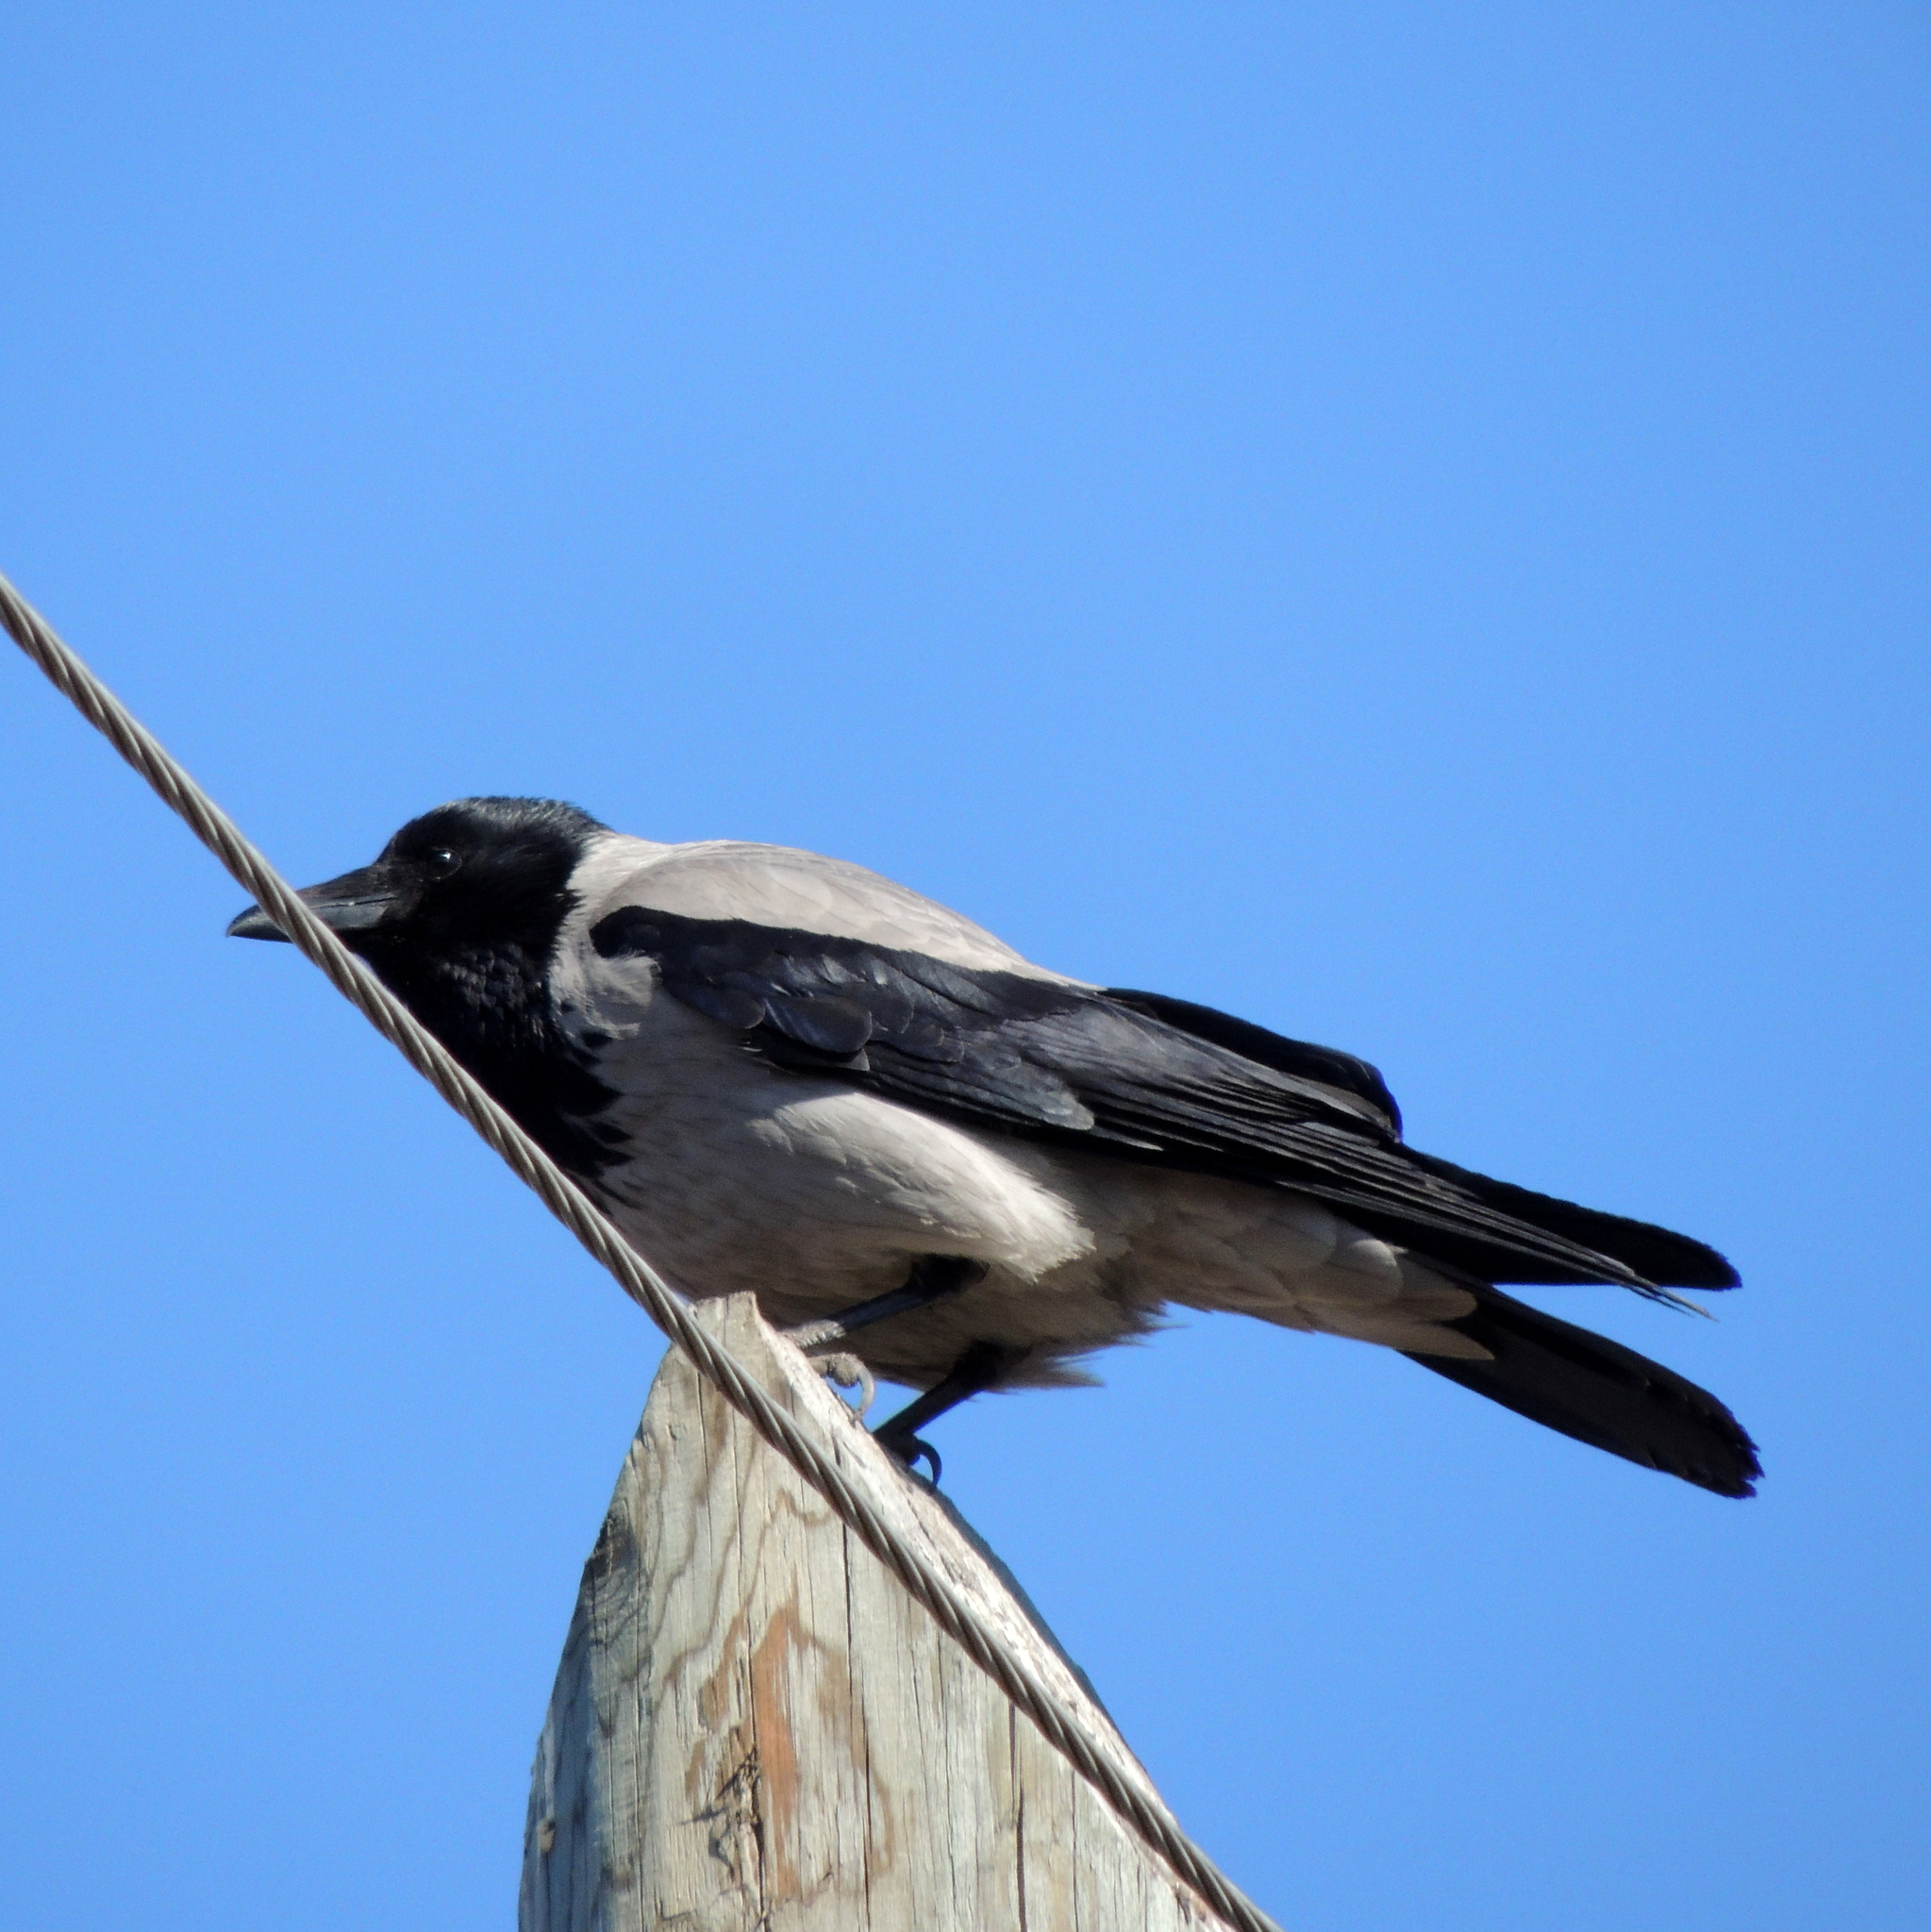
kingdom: Animalia
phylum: Chordata
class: Aves
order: Passeriformes
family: Corvidae
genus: Corvus
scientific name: Corvus cornix
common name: Hooded crow
